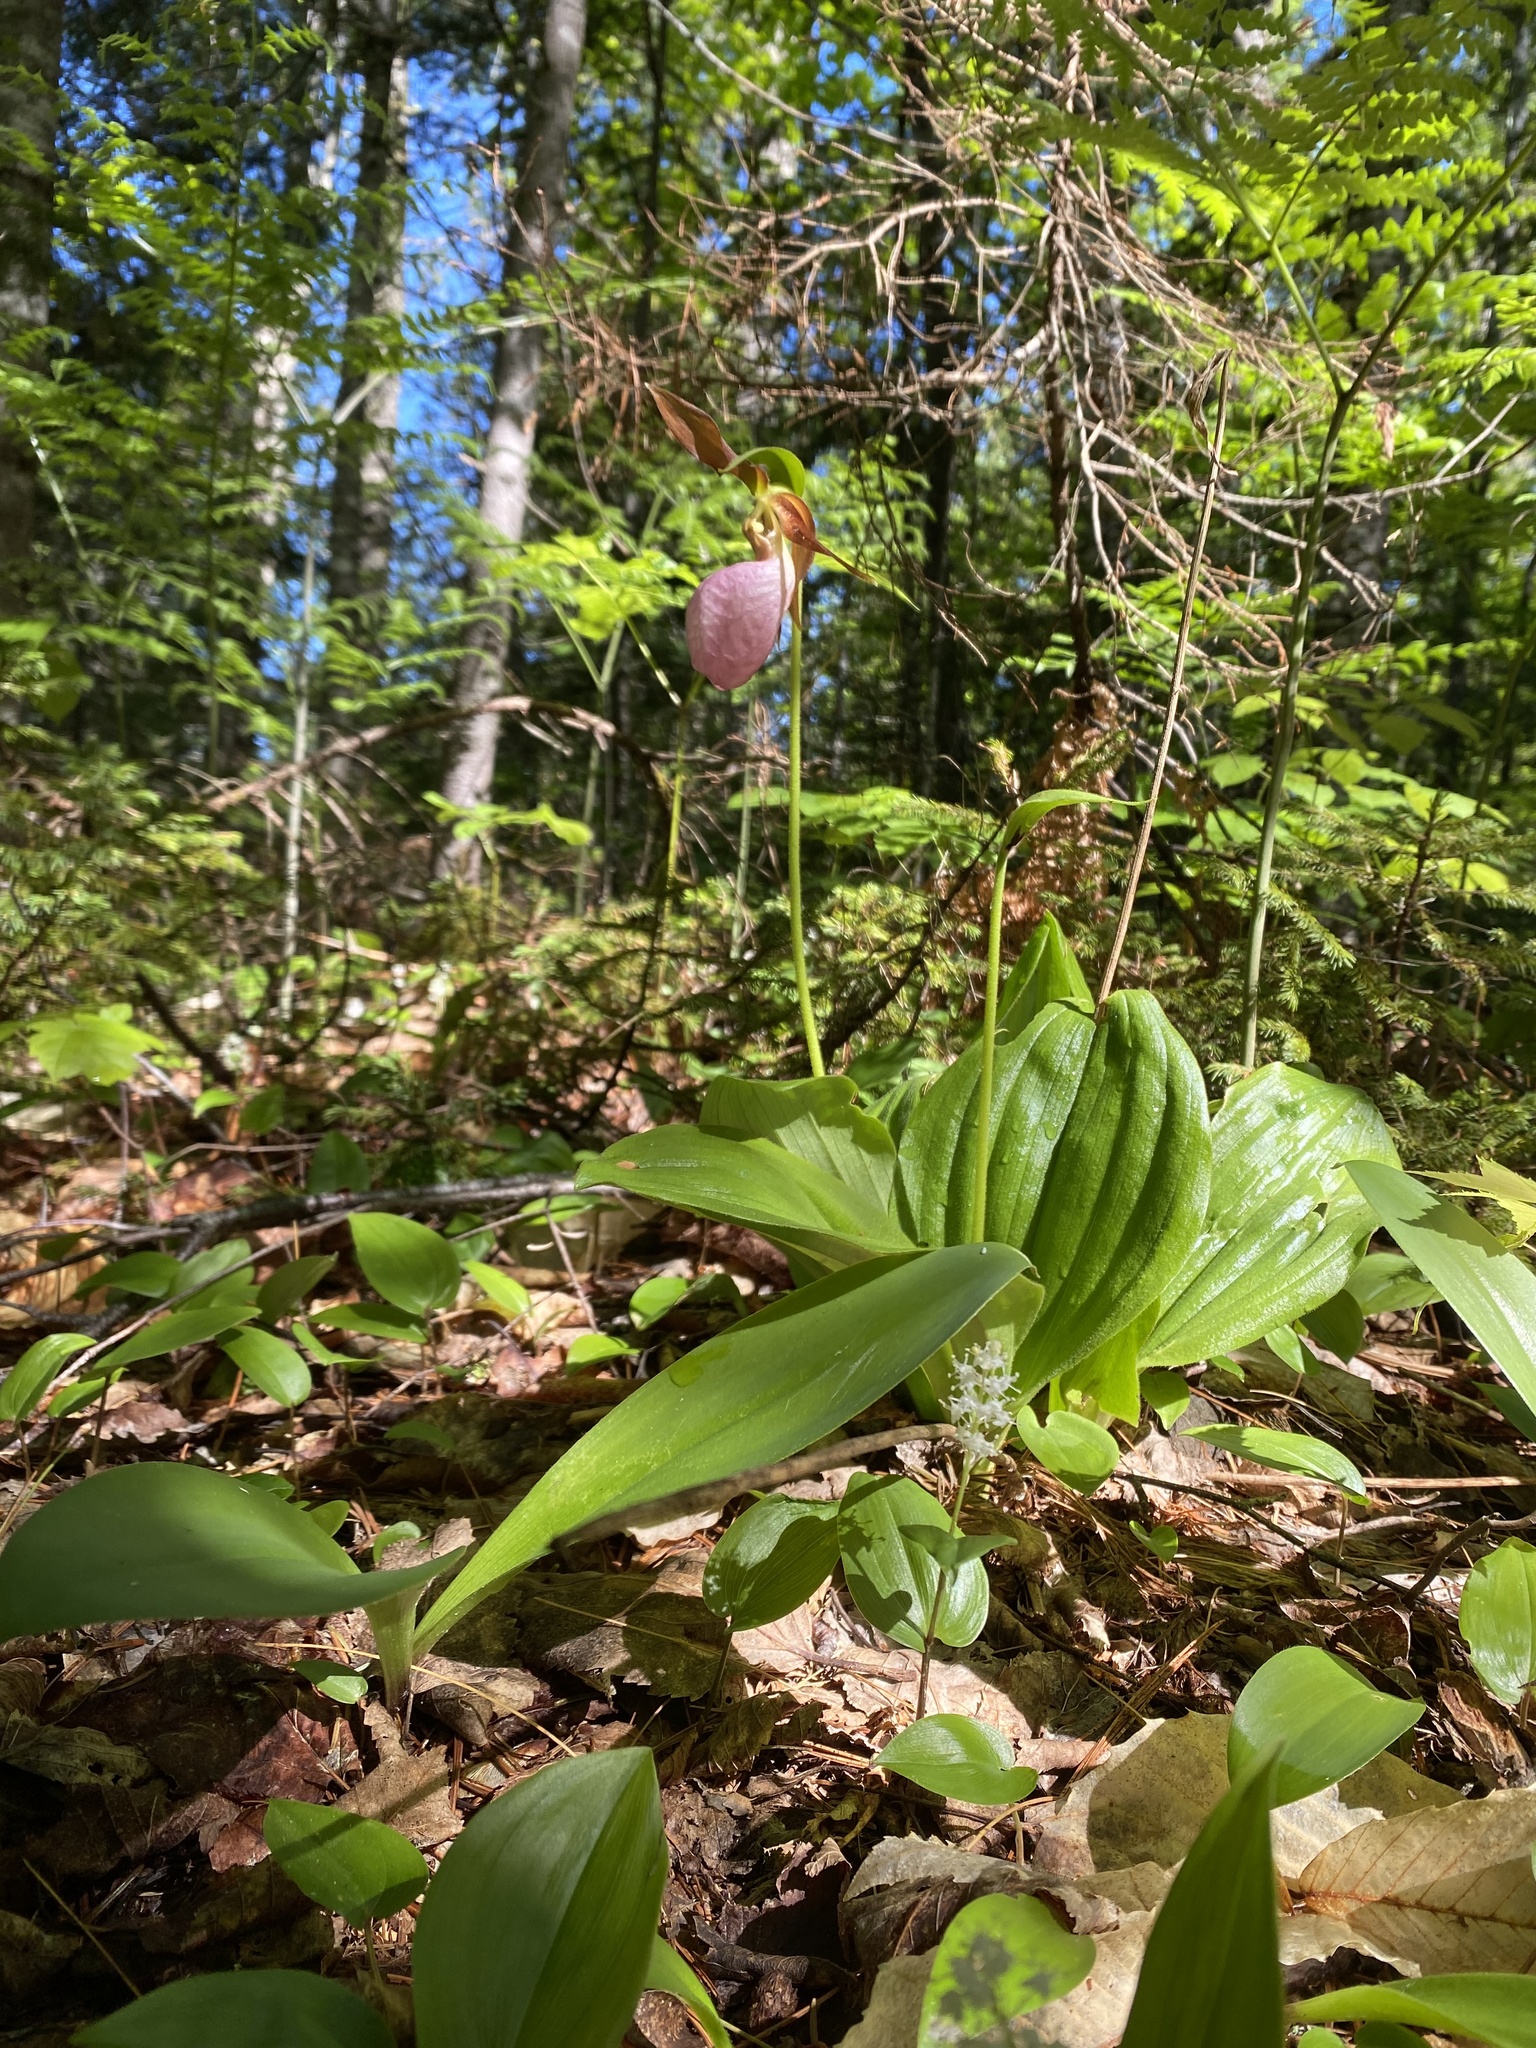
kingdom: Plantae
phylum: Tracheophyta
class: Liliopsida
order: Asparagales
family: Orchidaceae
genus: Cypripedium
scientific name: Cypripedium acaule
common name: Pink lady's-slipper
